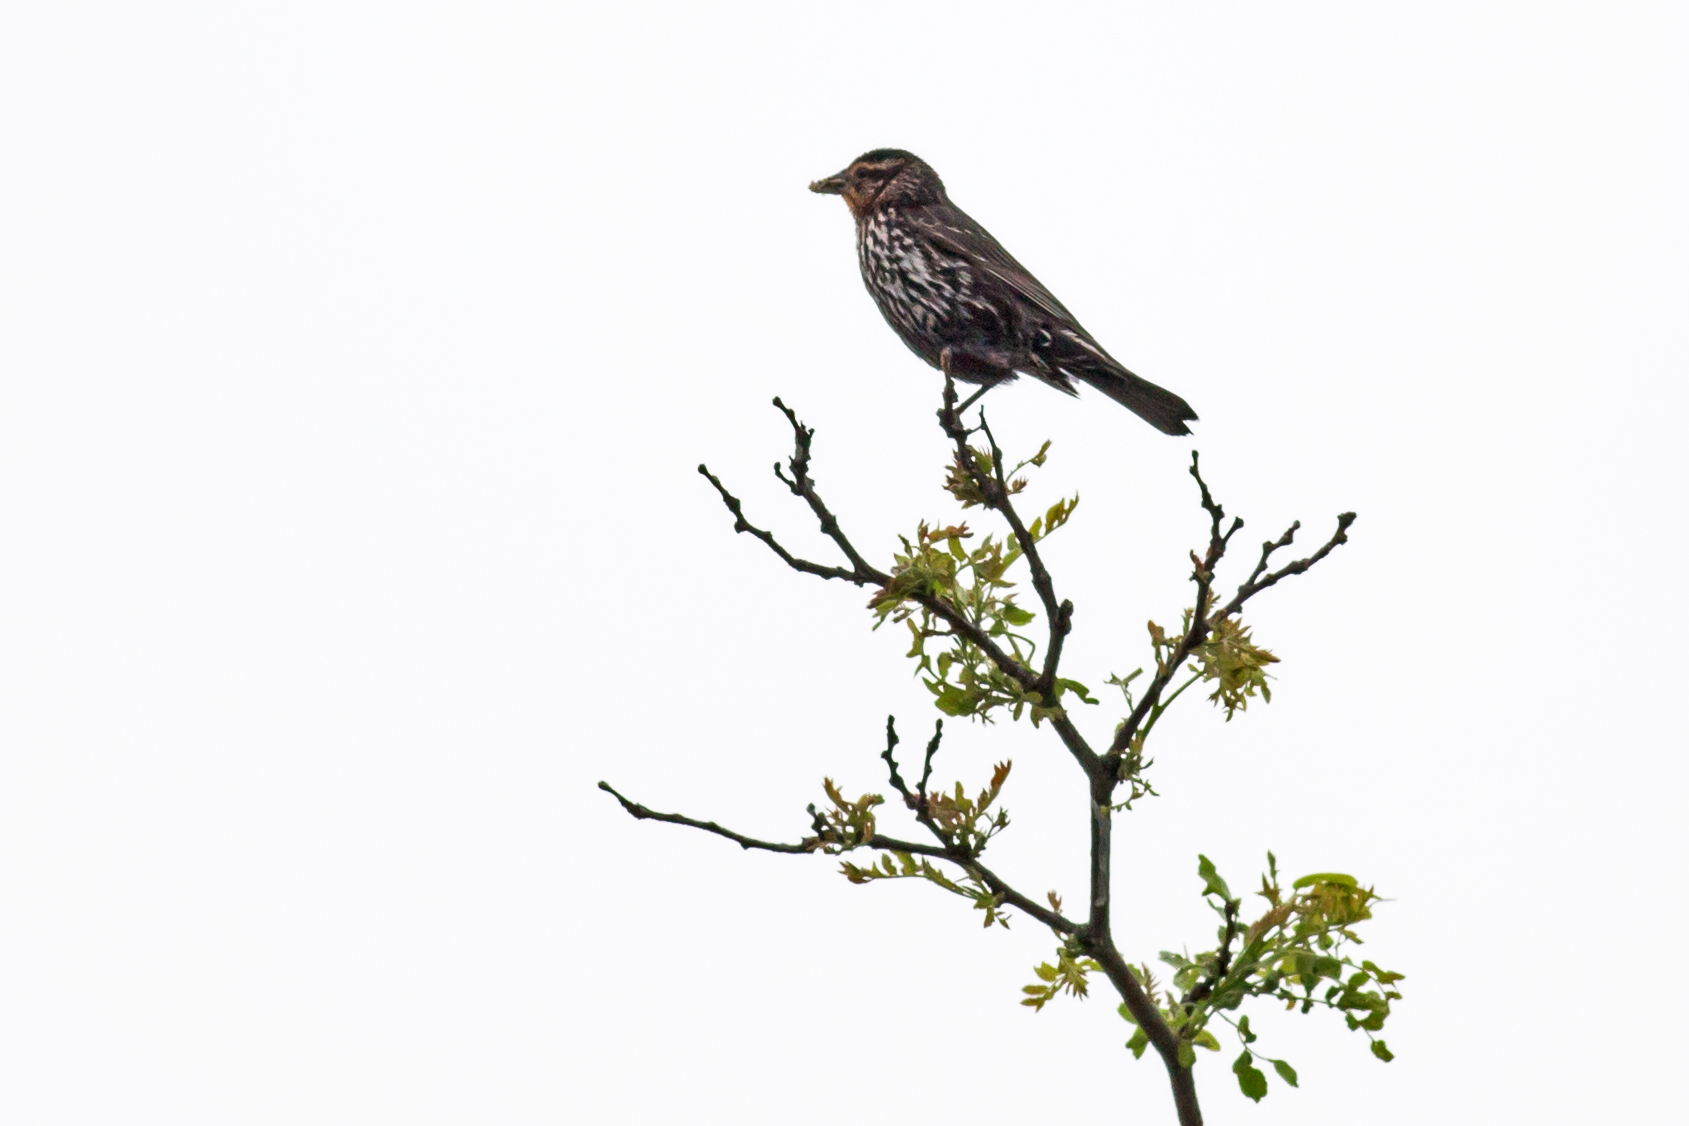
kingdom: Animalia
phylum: Chordata
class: Aves
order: Passeriformes
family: Icteridae
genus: Agelaius
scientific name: Agelaius phoeniceus
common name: Red-winged blackbird
